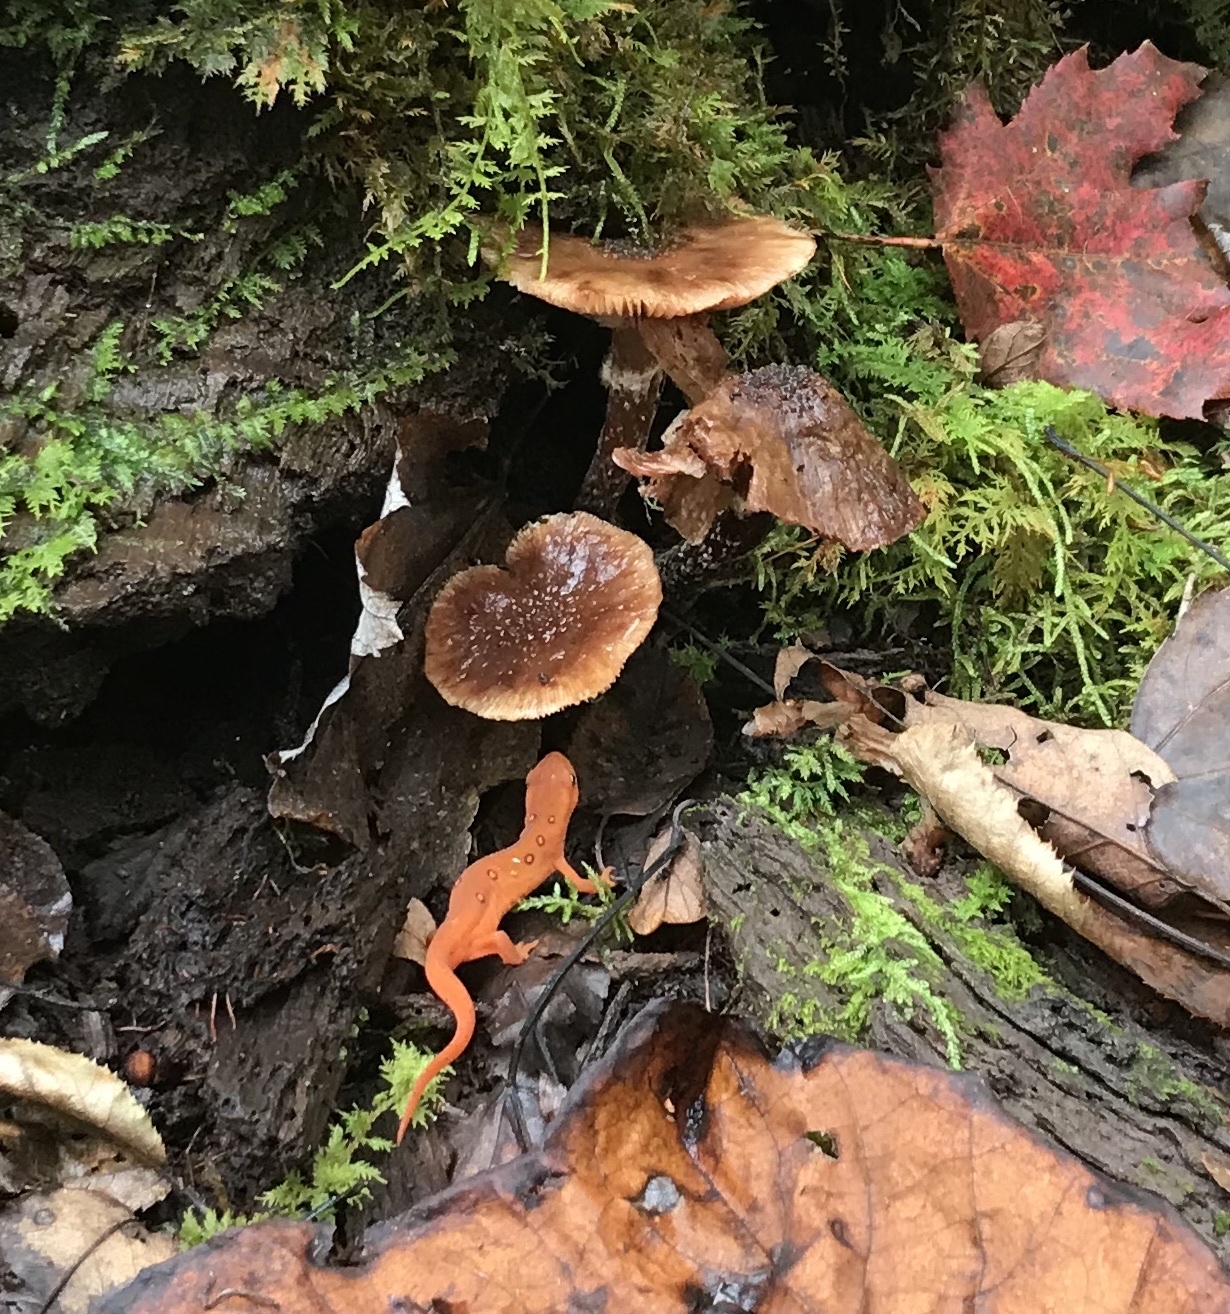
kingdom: Animalia
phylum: Chordata
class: Amphibia
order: Caudata
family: Salamandridae
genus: Notophthalmus
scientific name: Notophthalmus viridescens
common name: Eastern newt
